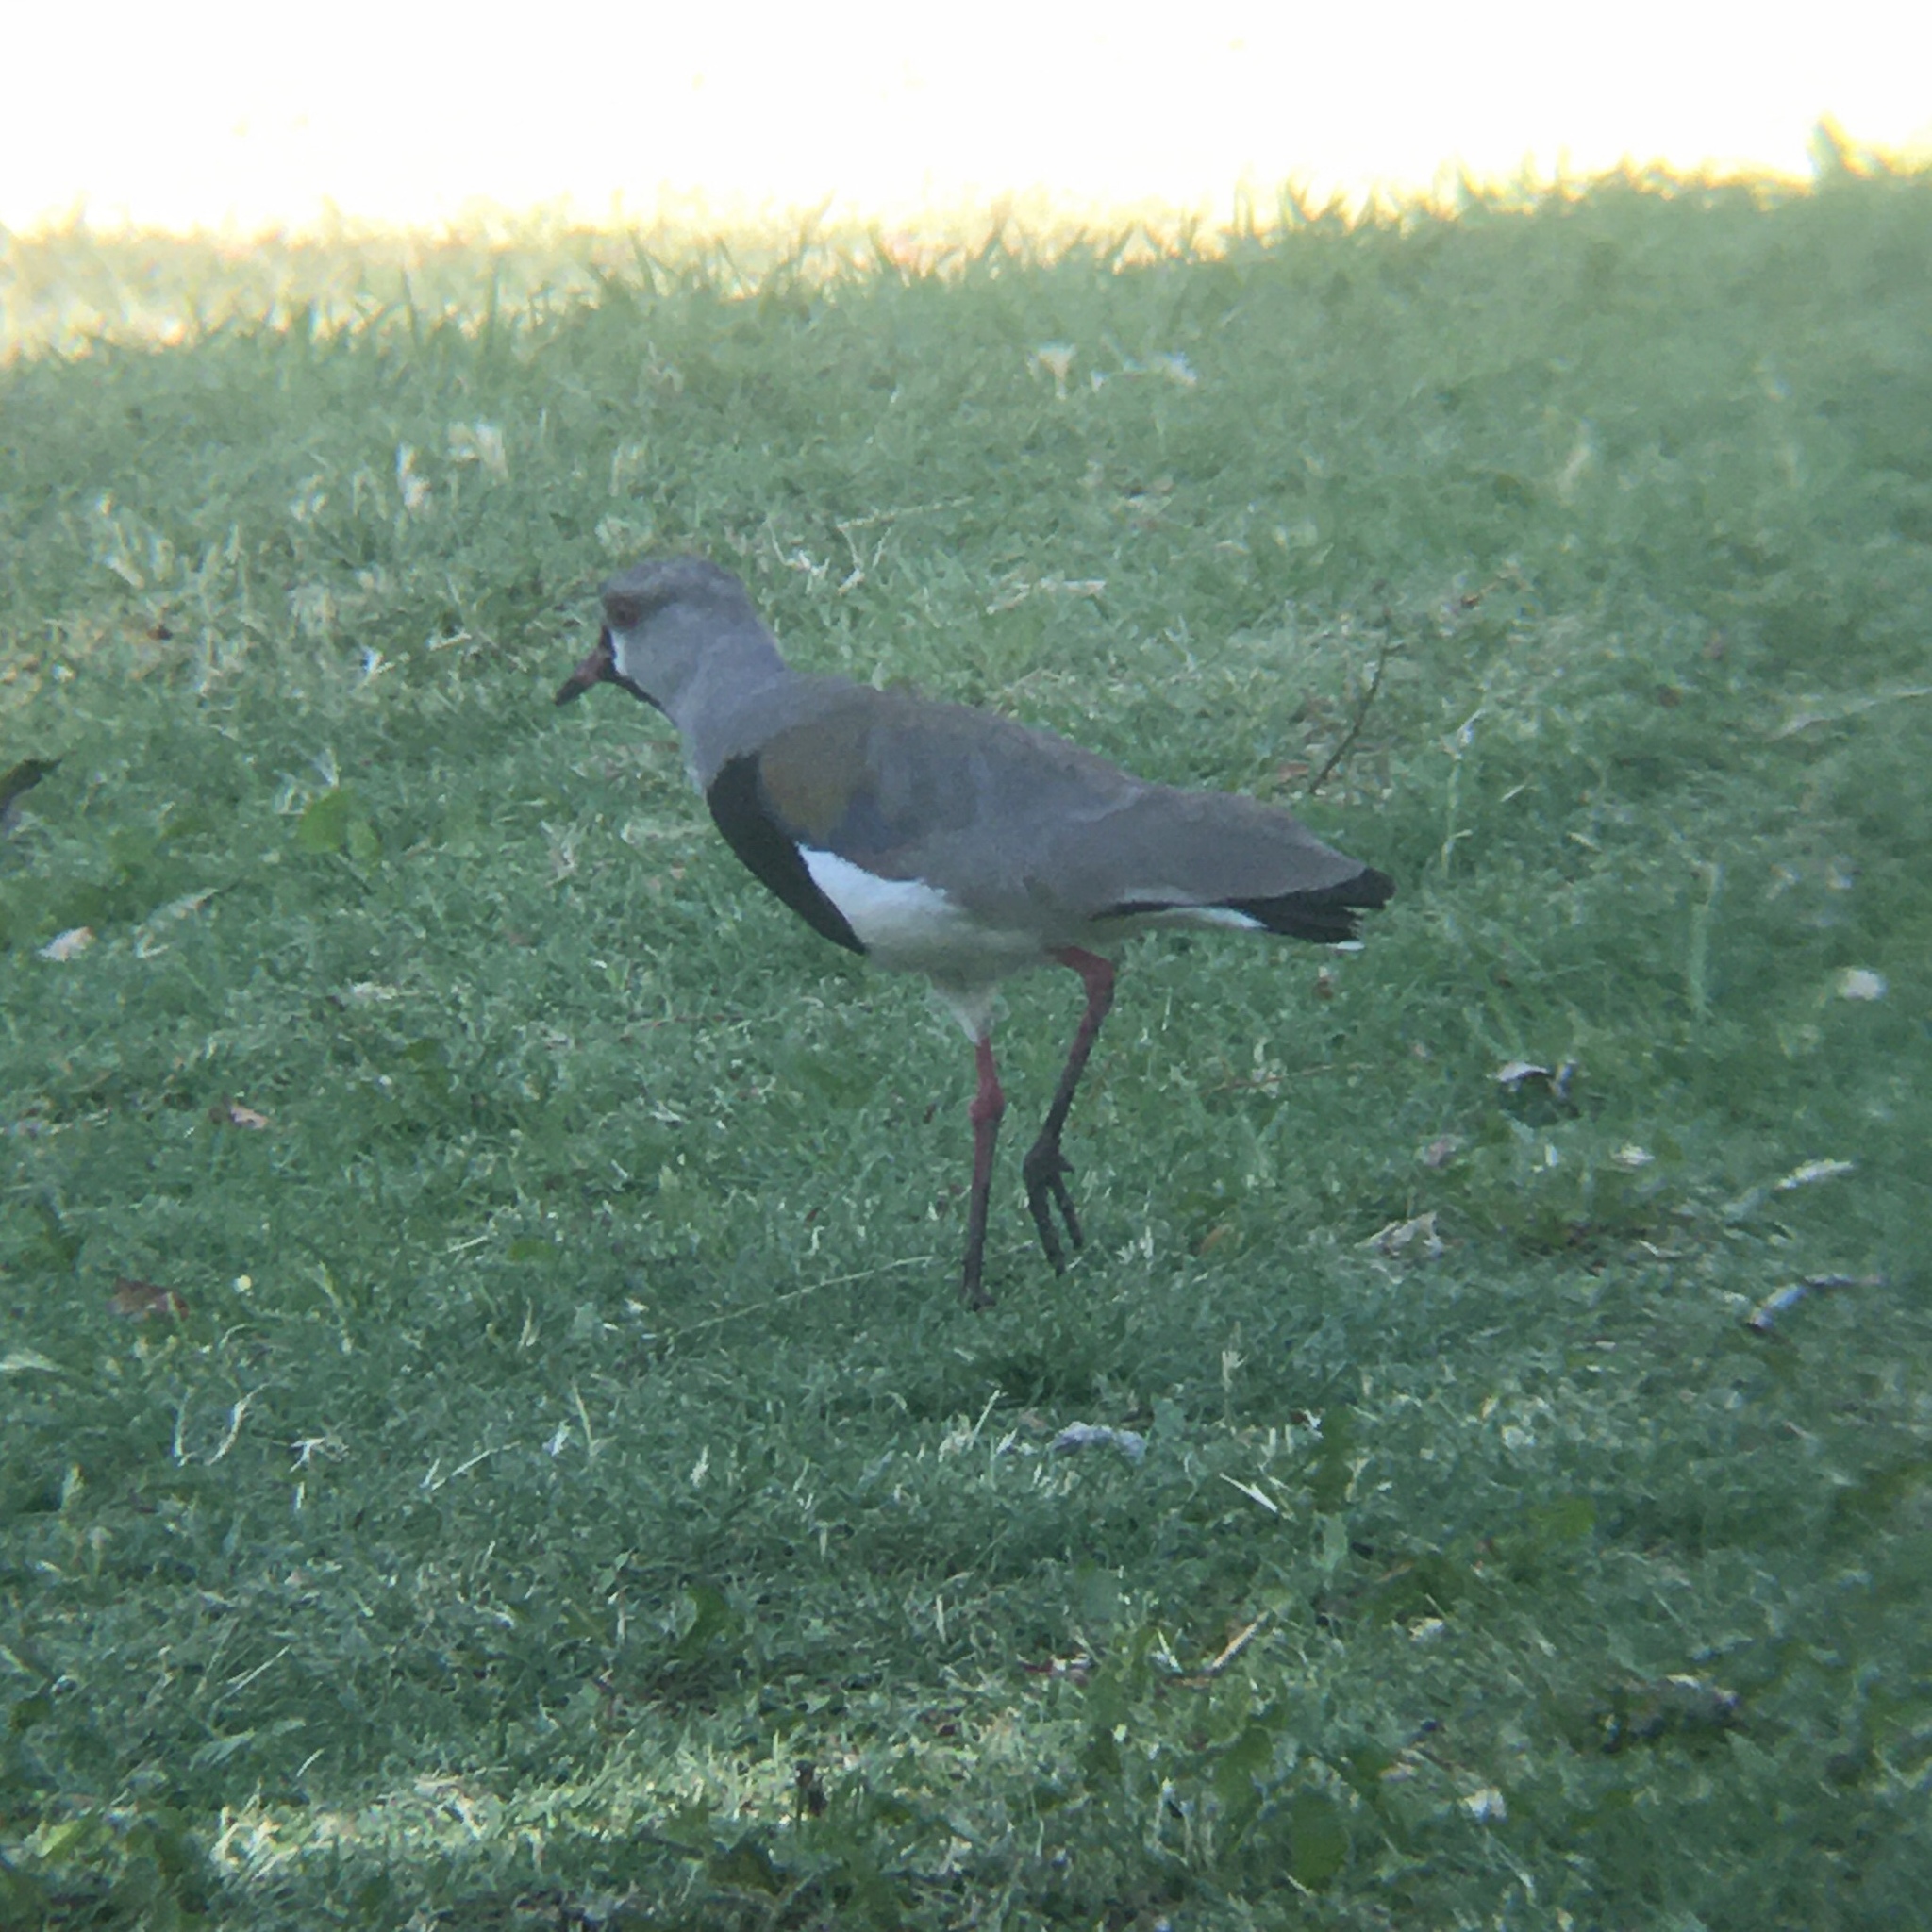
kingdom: Animalia
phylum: Chordata
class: Aves
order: Charadriiformes
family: Charadriidae
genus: Vanellus
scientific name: Vanellus chilensis
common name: Southern lapwing
